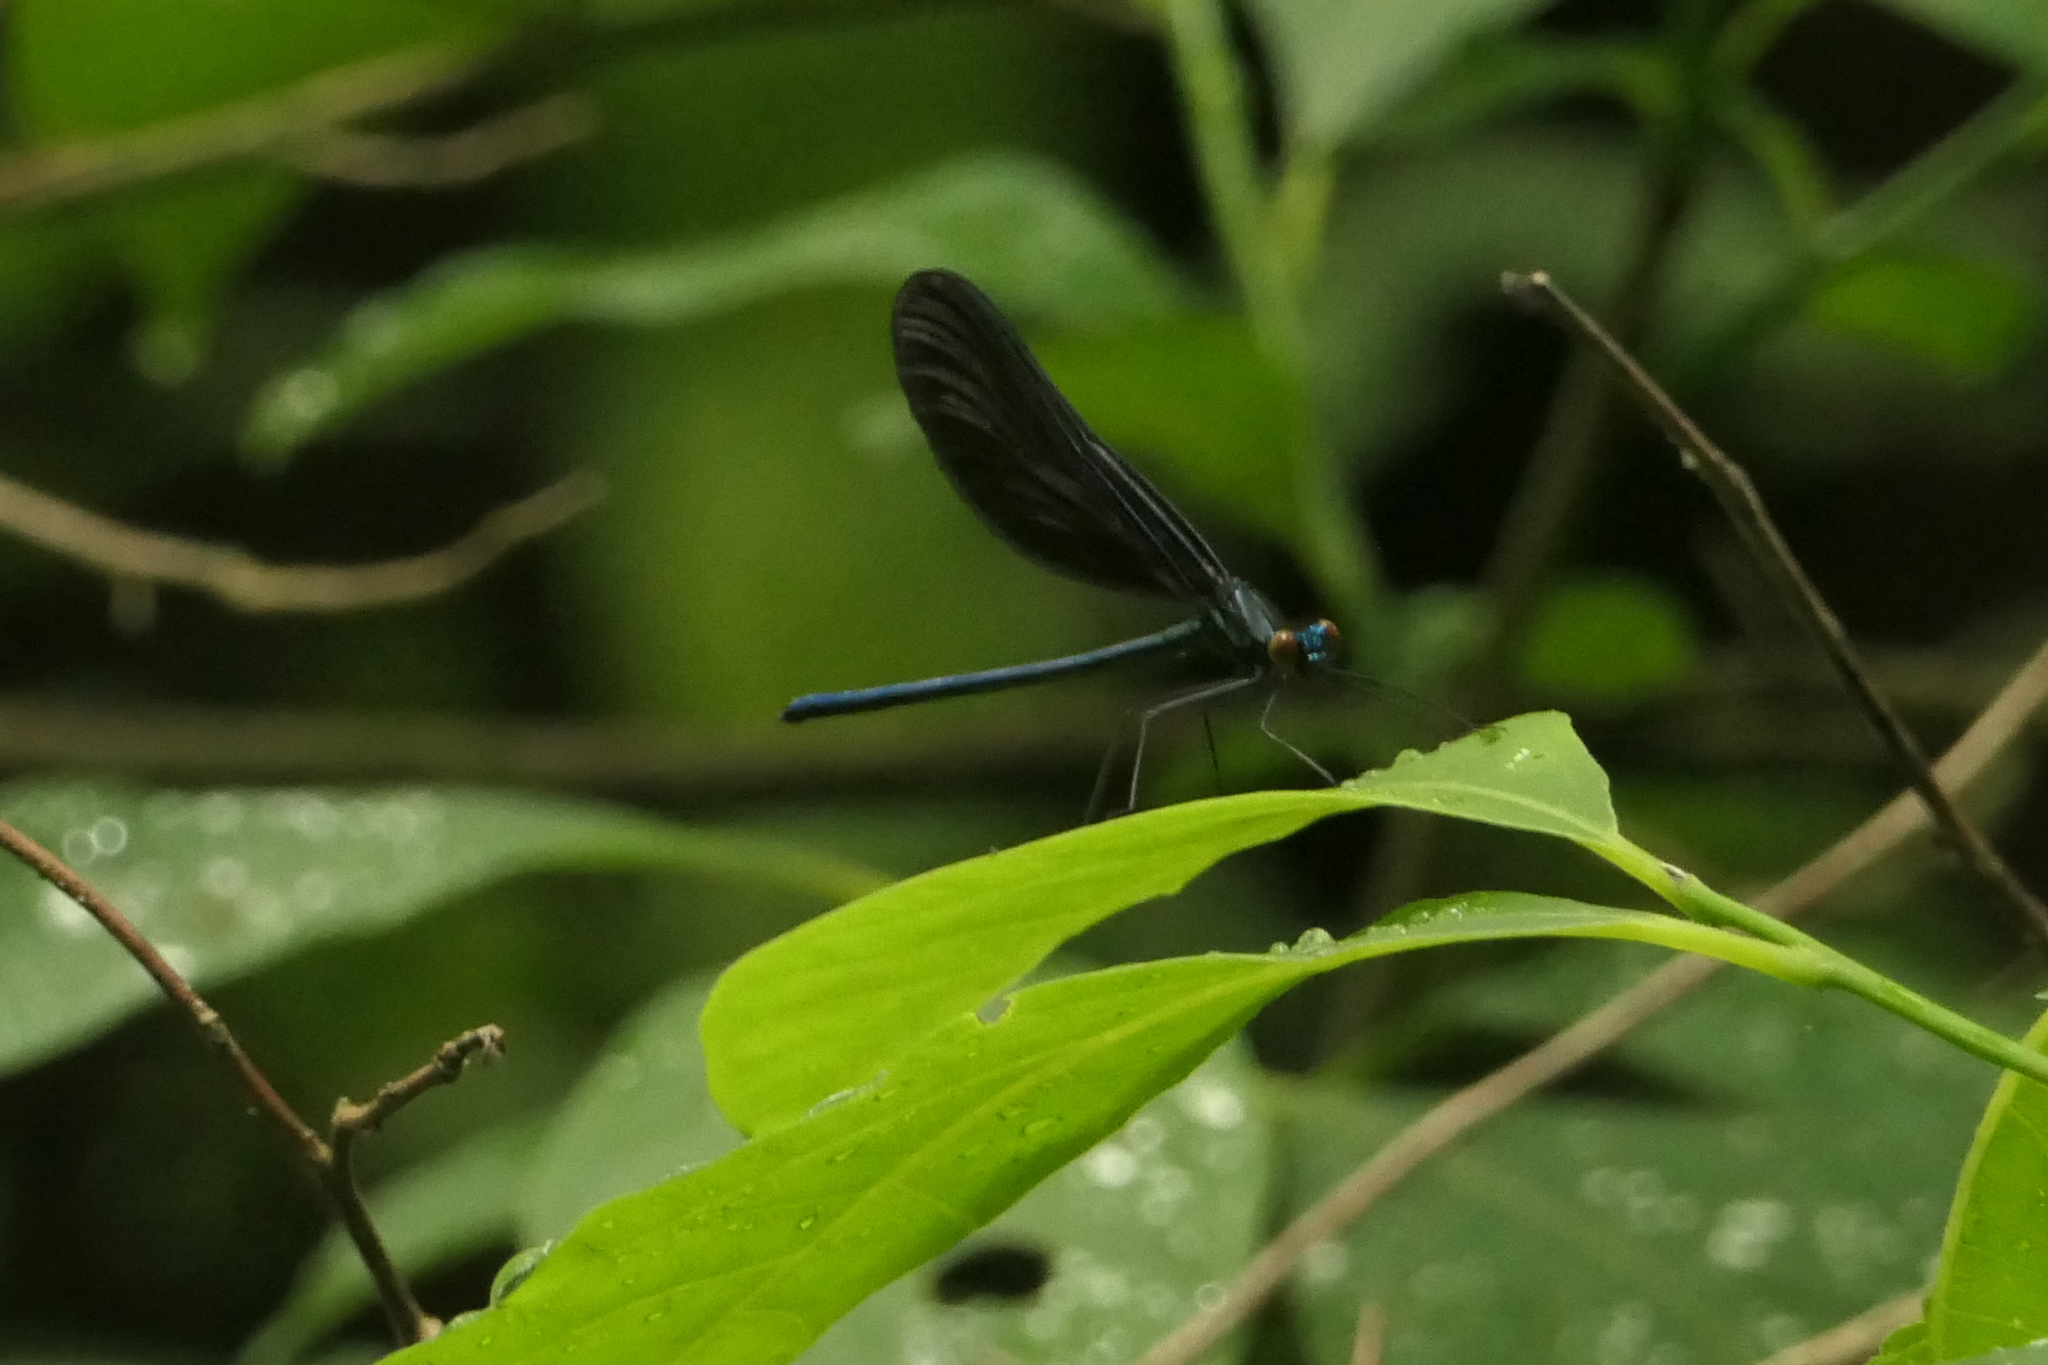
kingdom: Animalia
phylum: Arthropoda
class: Insecta
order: Odonata
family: Calopterygidae
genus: Calopteryx
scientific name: Calopteryx maculata
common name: Ebony jewelwing
